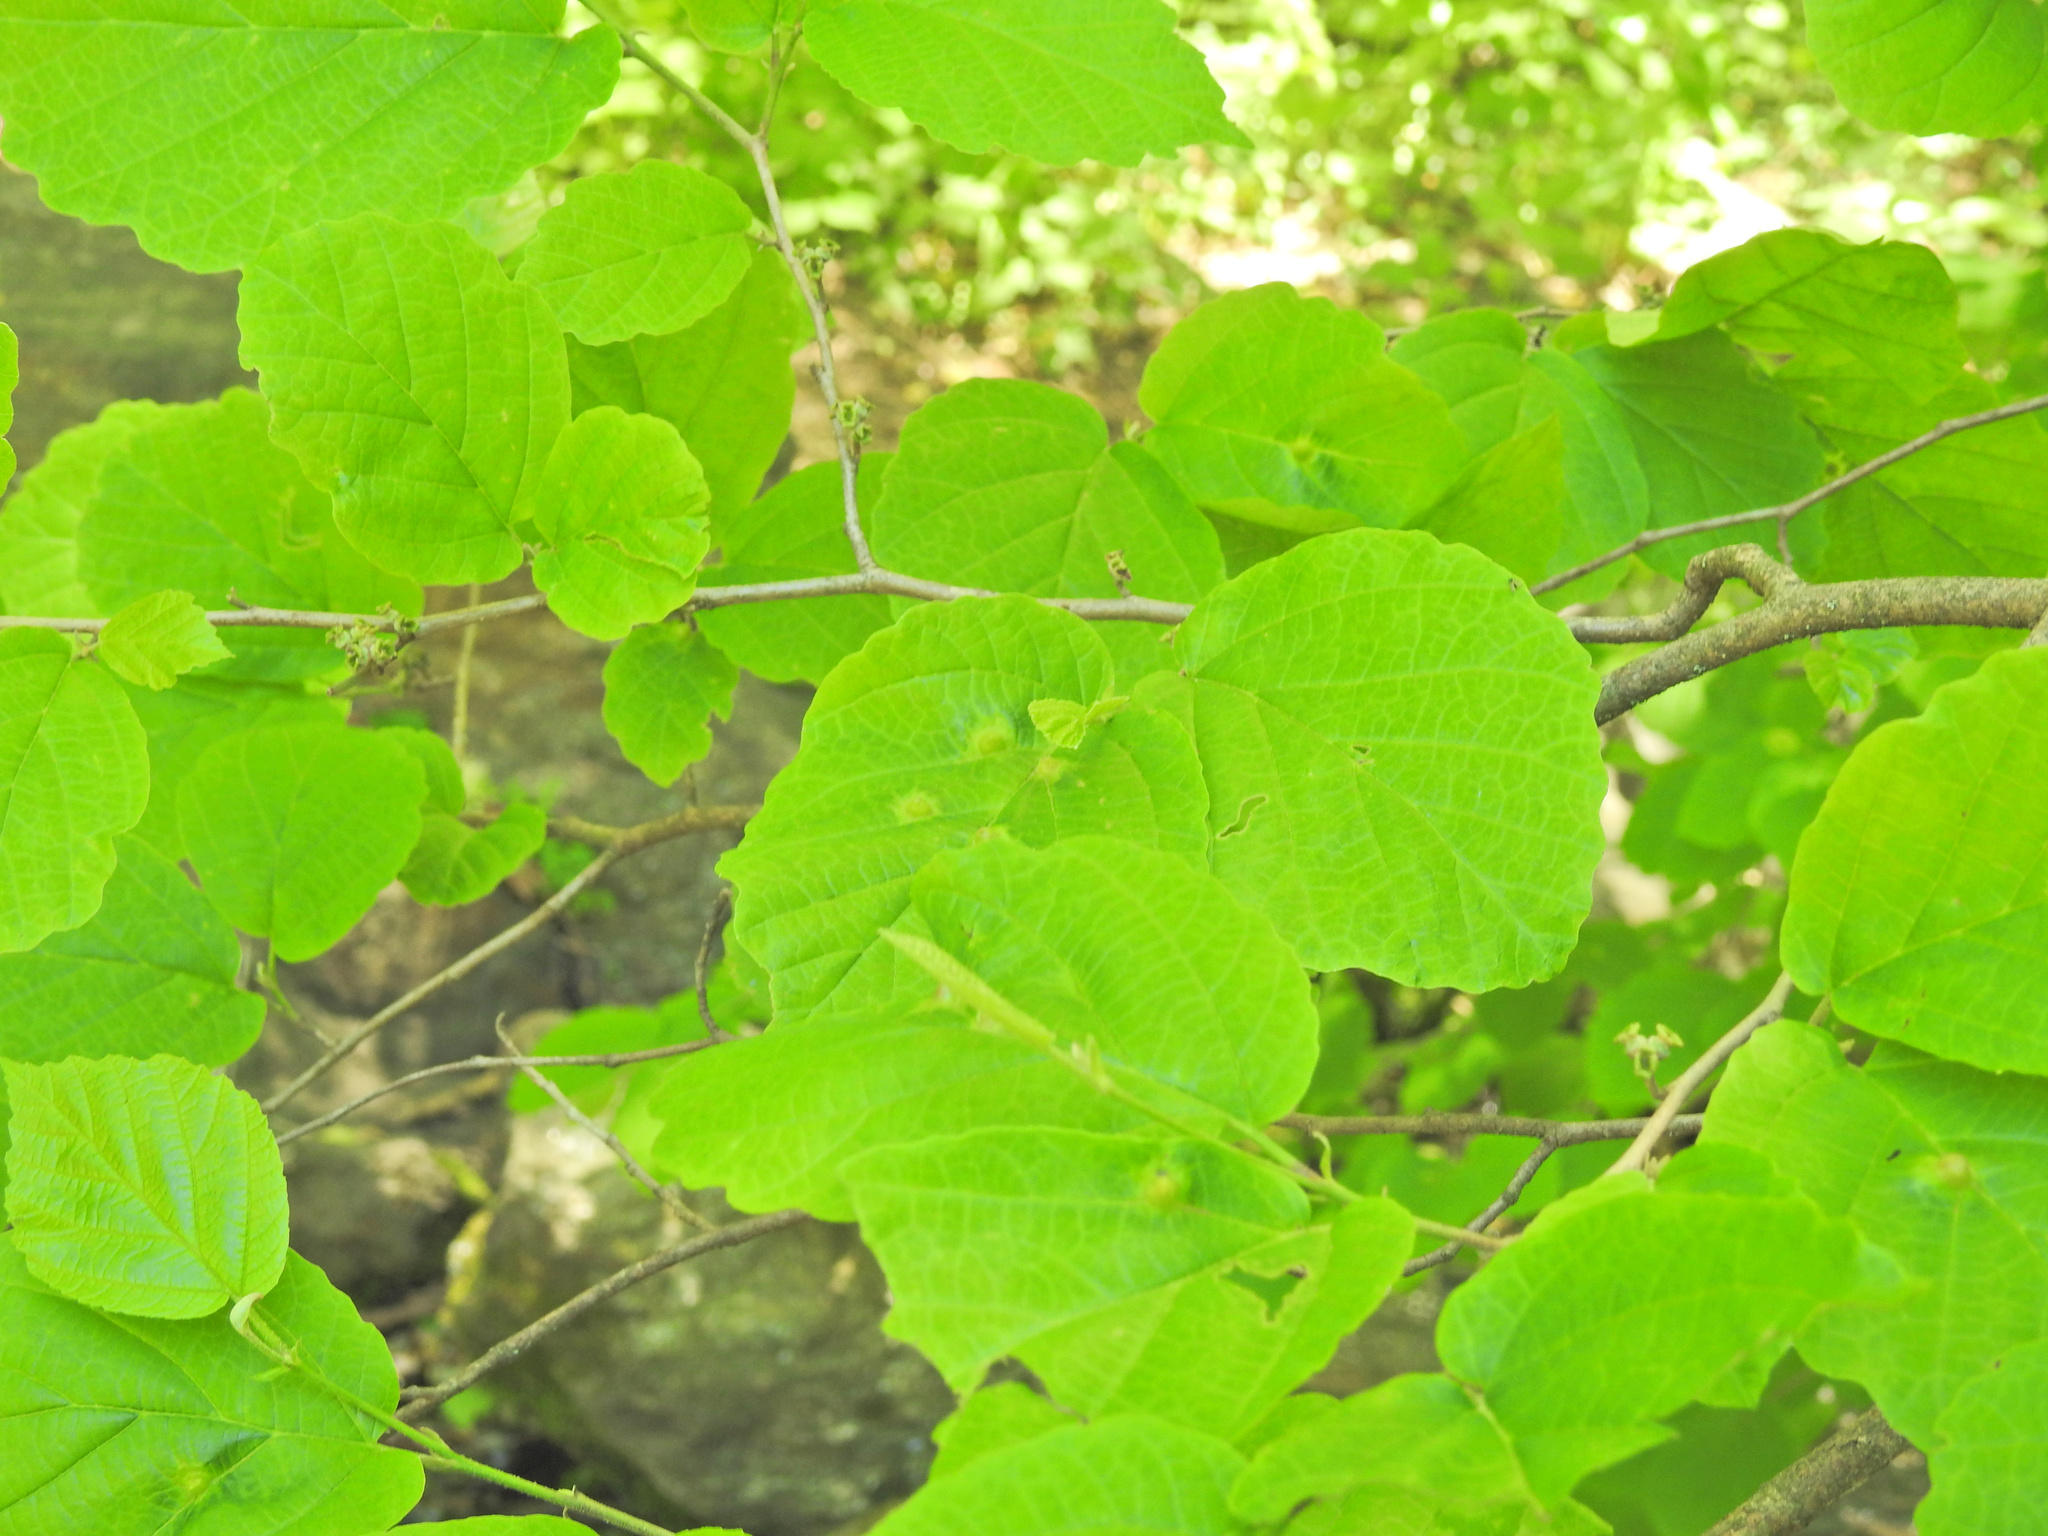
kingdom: Animalia
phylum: Arthropoda
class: Insecta
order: Hemiptera
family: Aphididae
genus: Hormaphis
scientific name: Hormaphis hamamelidis
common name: Witch-hazel cone gall aphid
